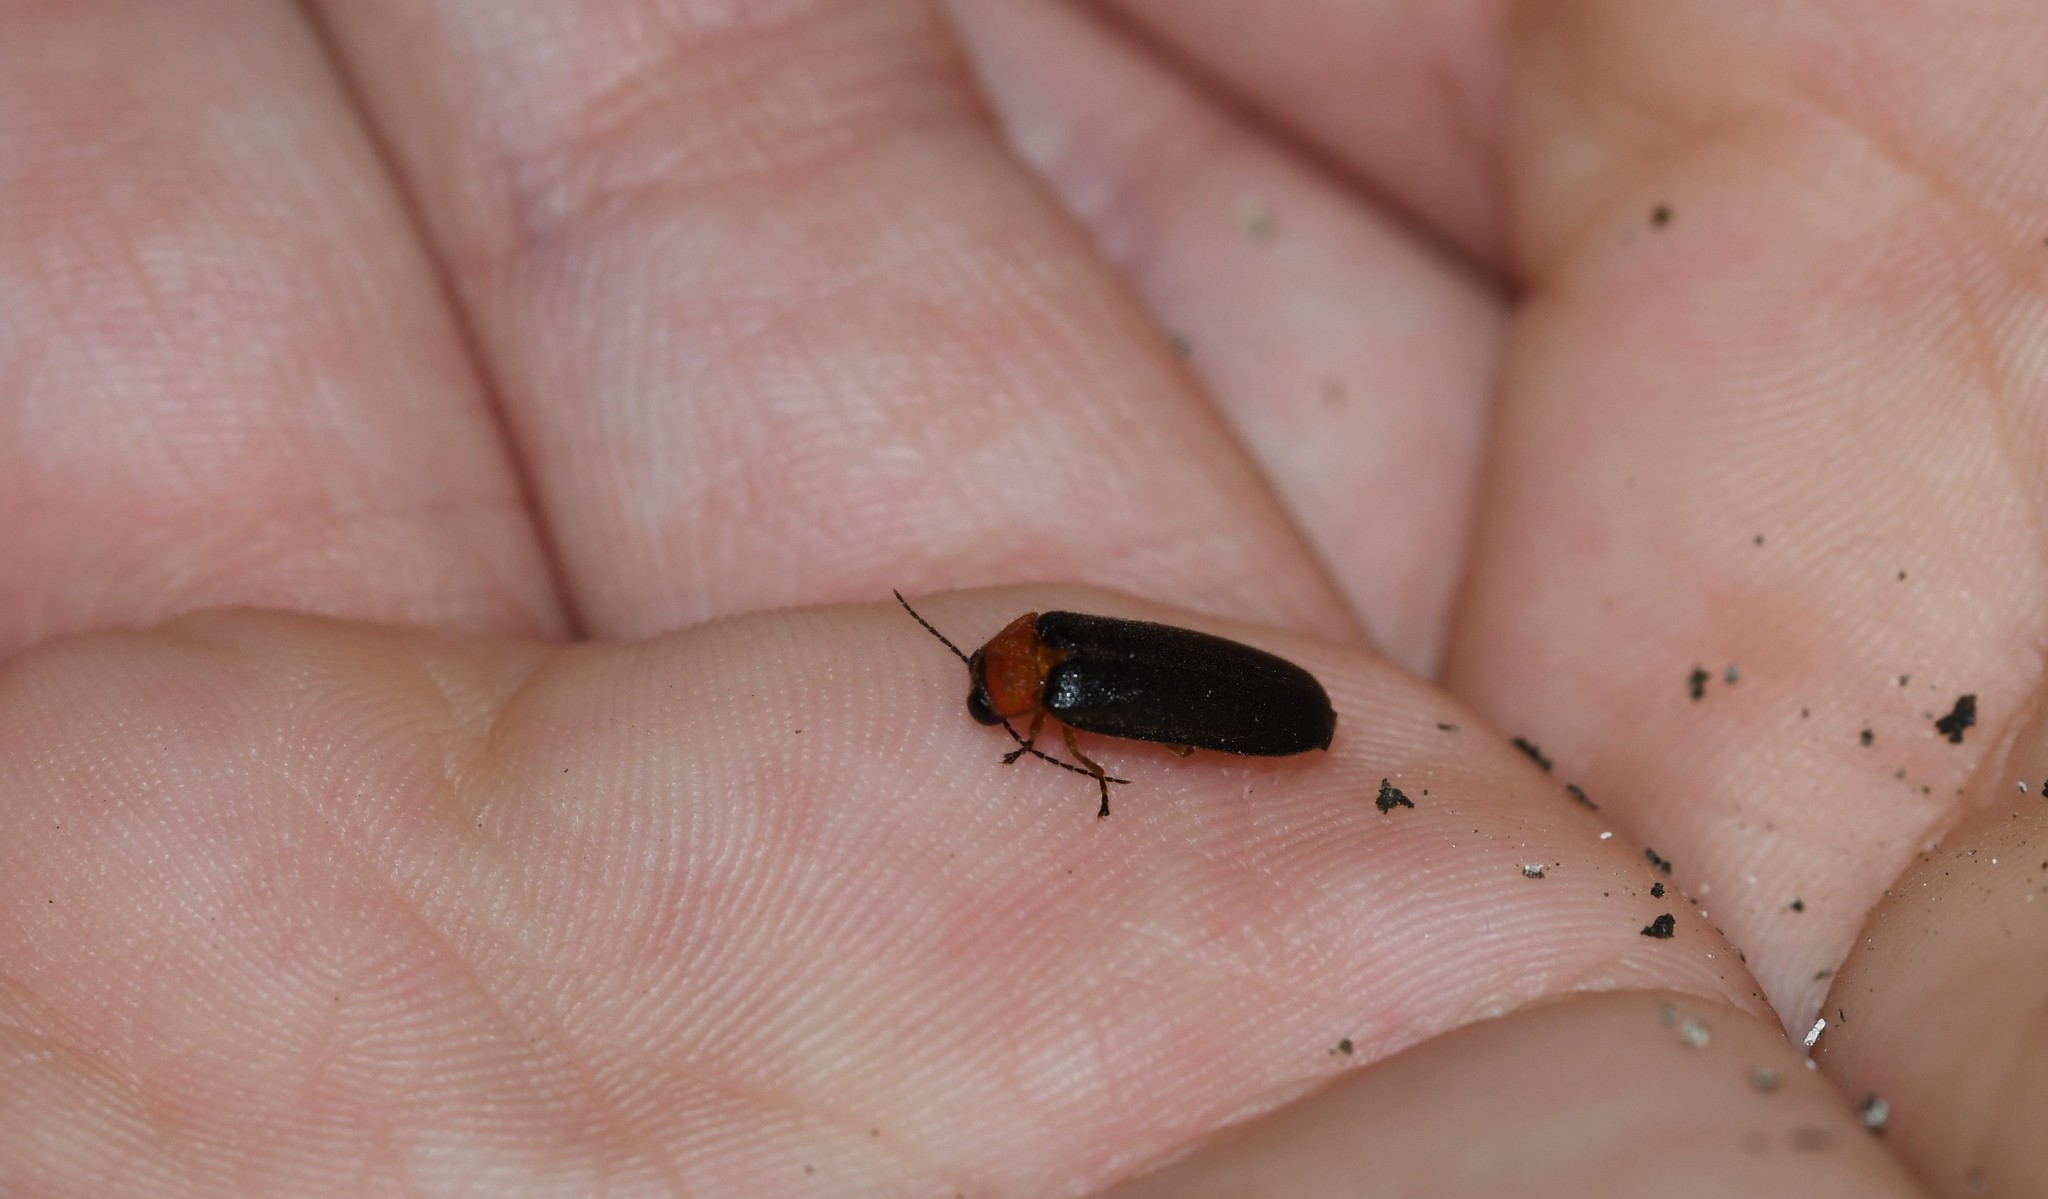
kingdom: Animalia
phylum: Arthropoda
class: Insecta
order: Coleoptera
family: Lampyridae
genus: Luciola
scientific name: Luciola lusitanica
